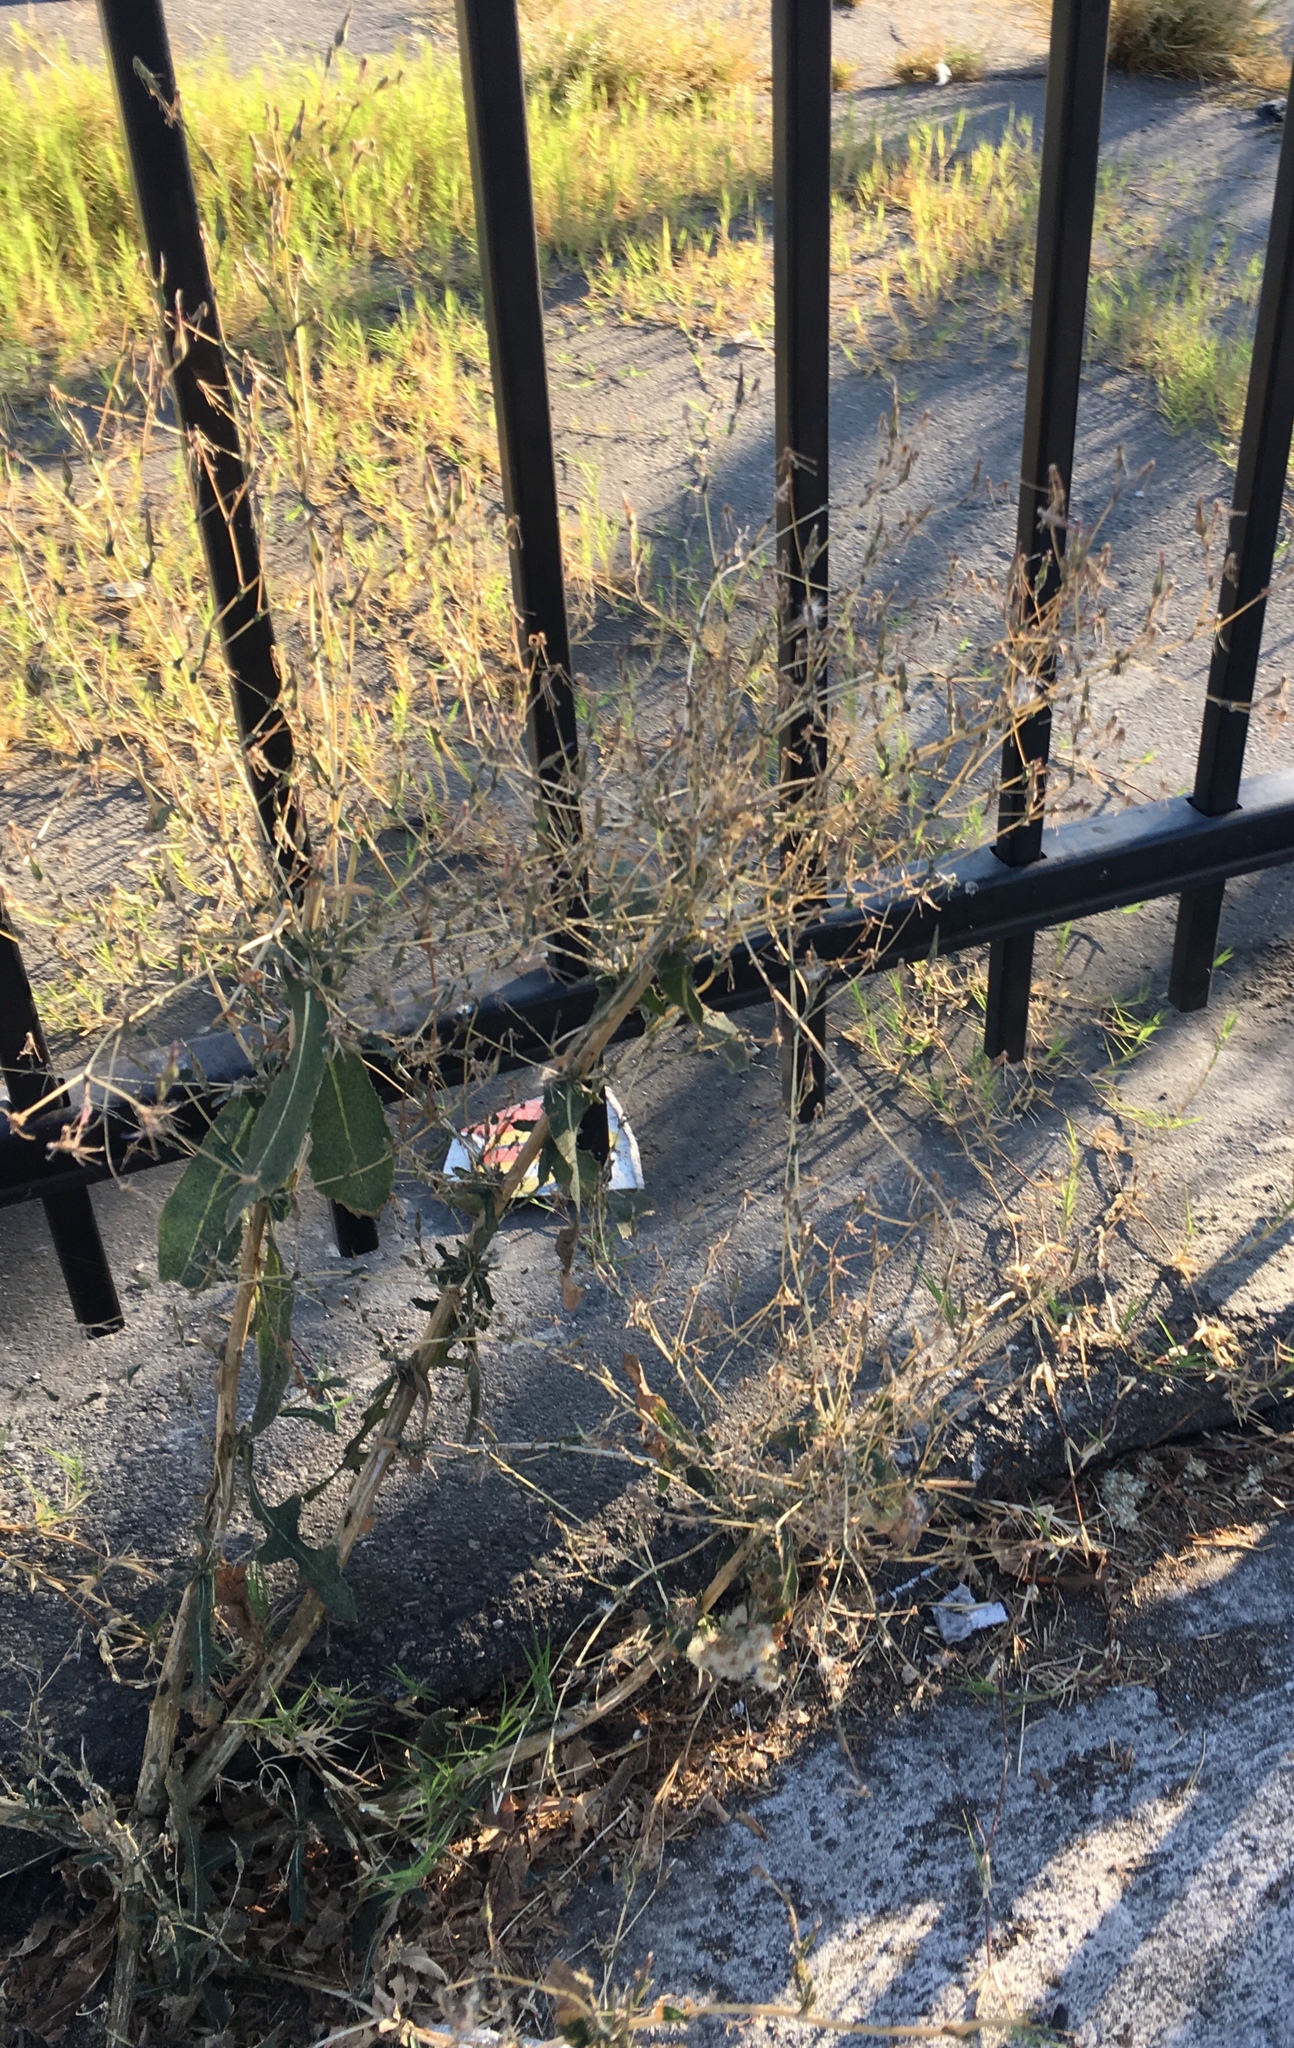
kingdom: Plantae
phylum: Tracheophyta
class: Magnoliopsida
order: Asterales
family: Asteraceae
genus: Lactuca
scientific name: Lactuca serriola
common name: Prickly lettuce
